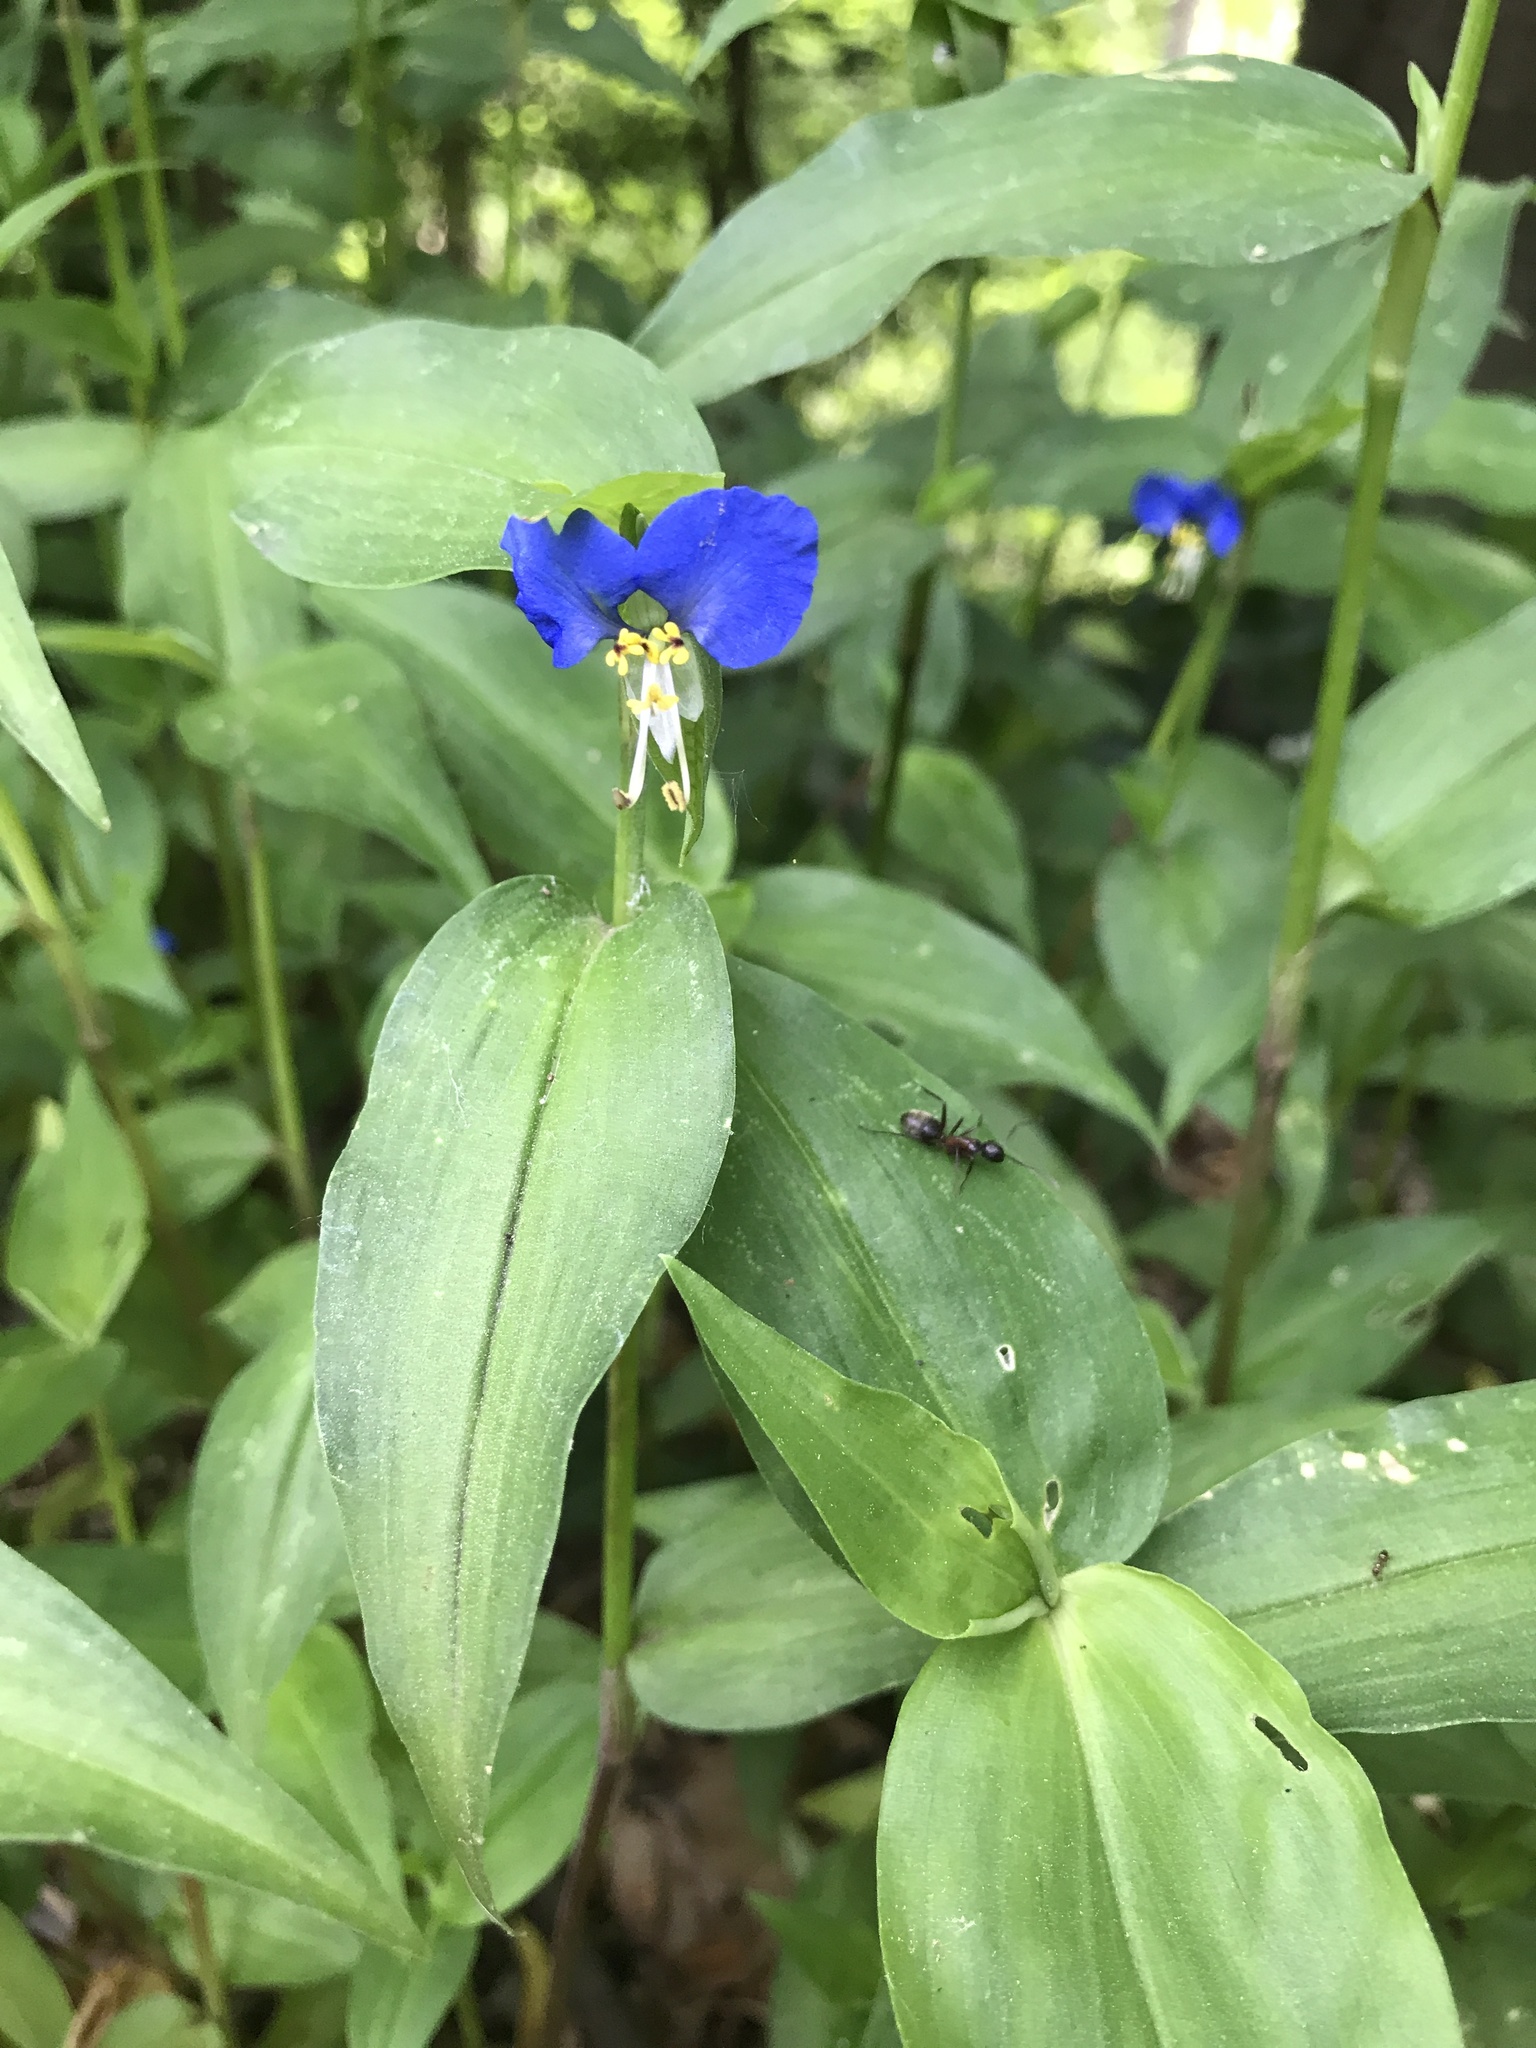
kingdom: Plantae
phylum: Tracheophyta
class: Liliopsida
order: Commelinales
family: Commelinaceae
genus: Commelina
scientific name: Commelina communis
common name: Asiatic dayflower
